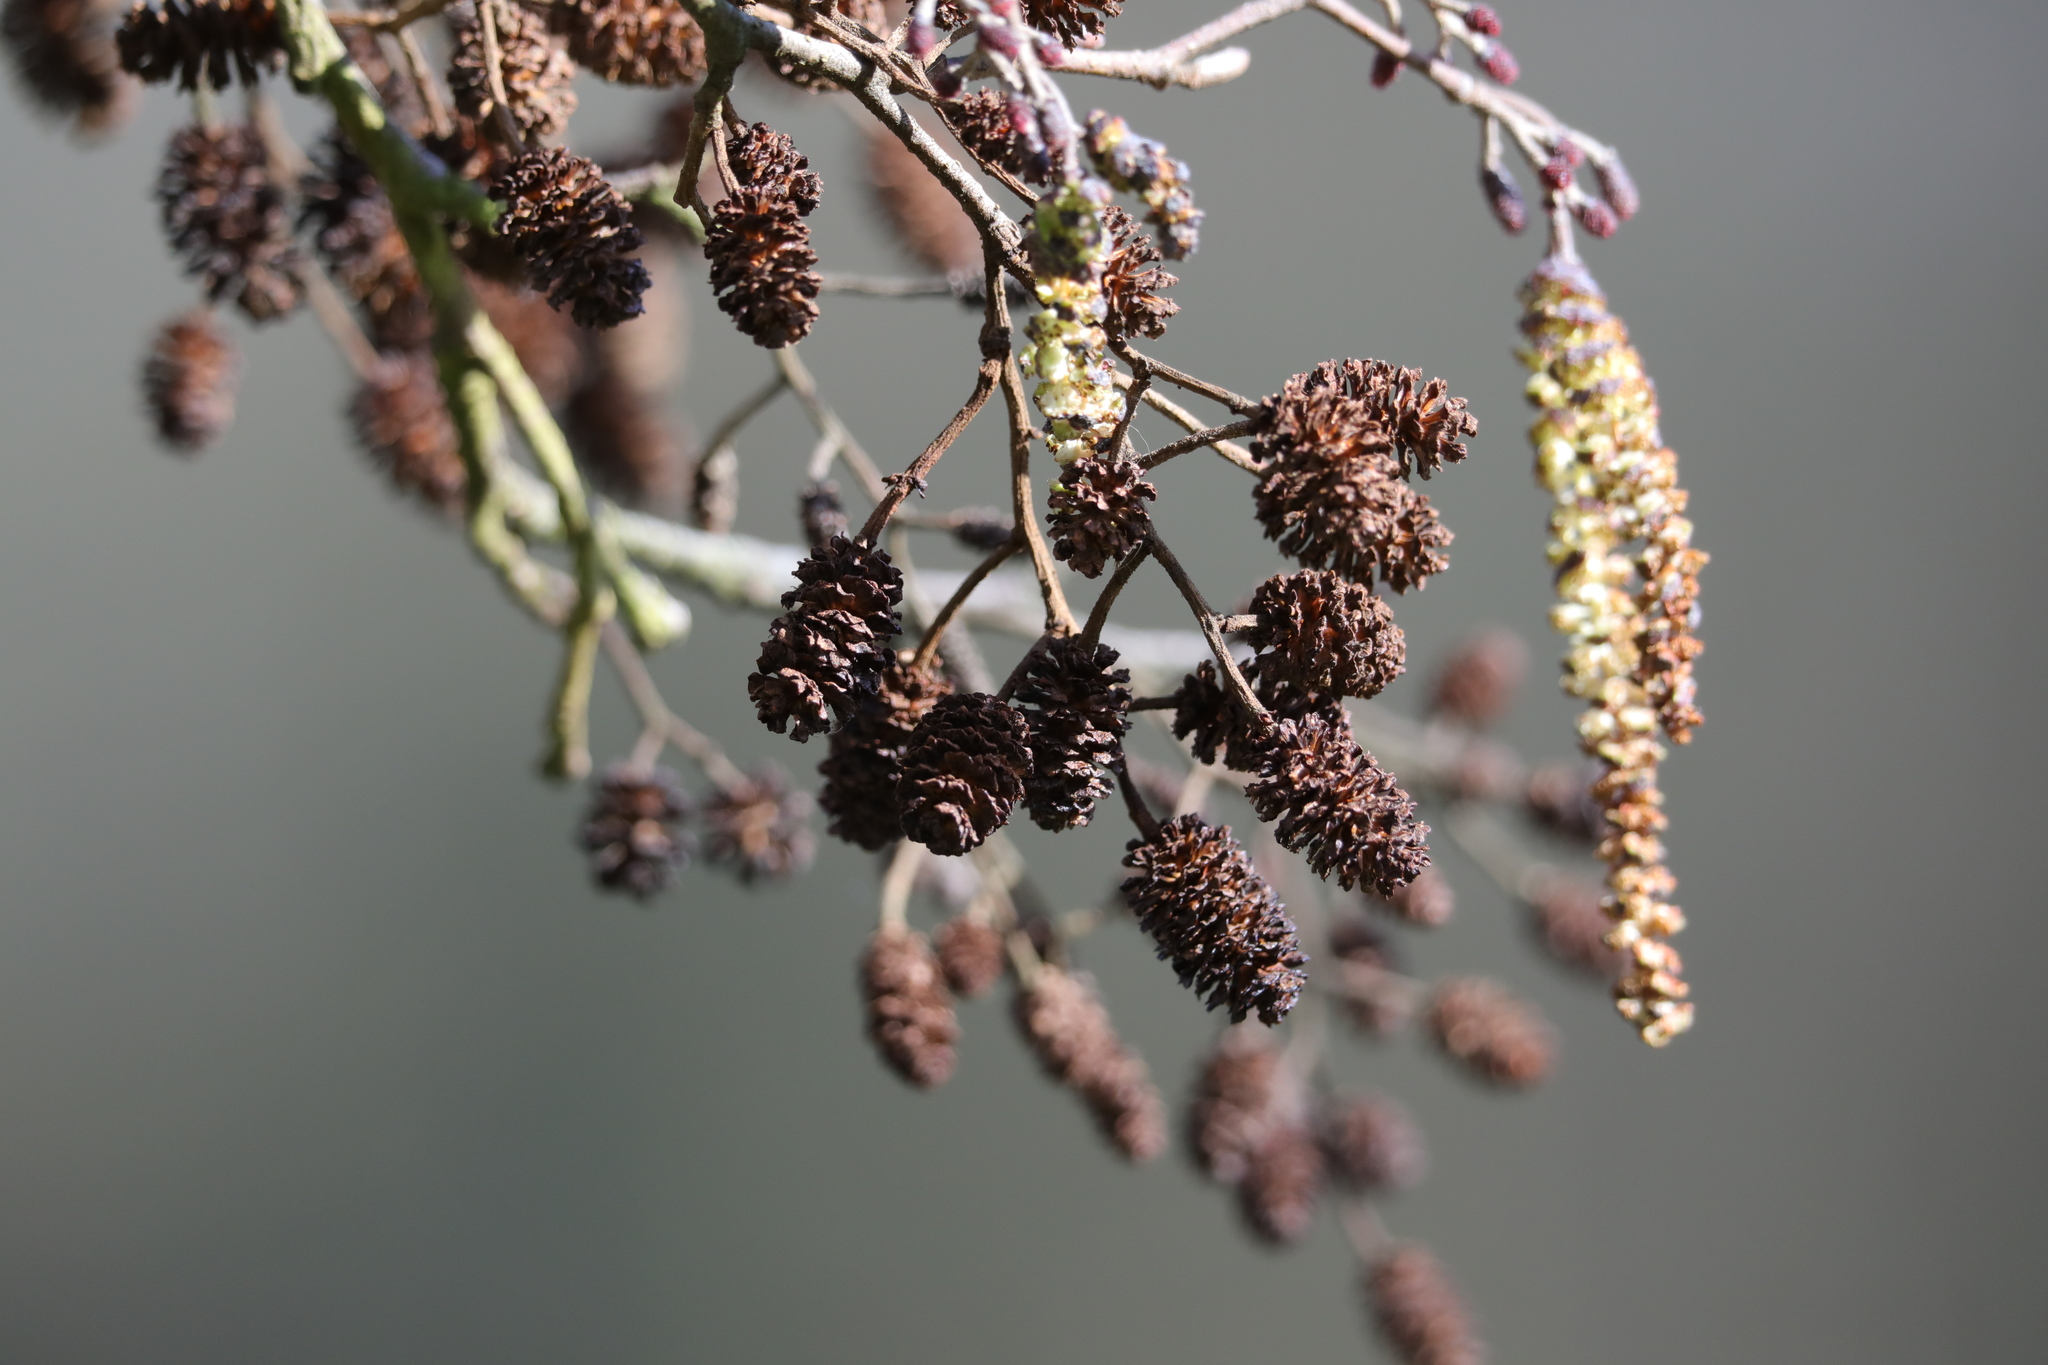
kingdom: Plantae
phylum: Tracheophyta
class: Magnoliopsida
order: Fagales
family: Betulaceae
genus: Alnus
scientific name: Alnus glutinosa
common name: Black alder
